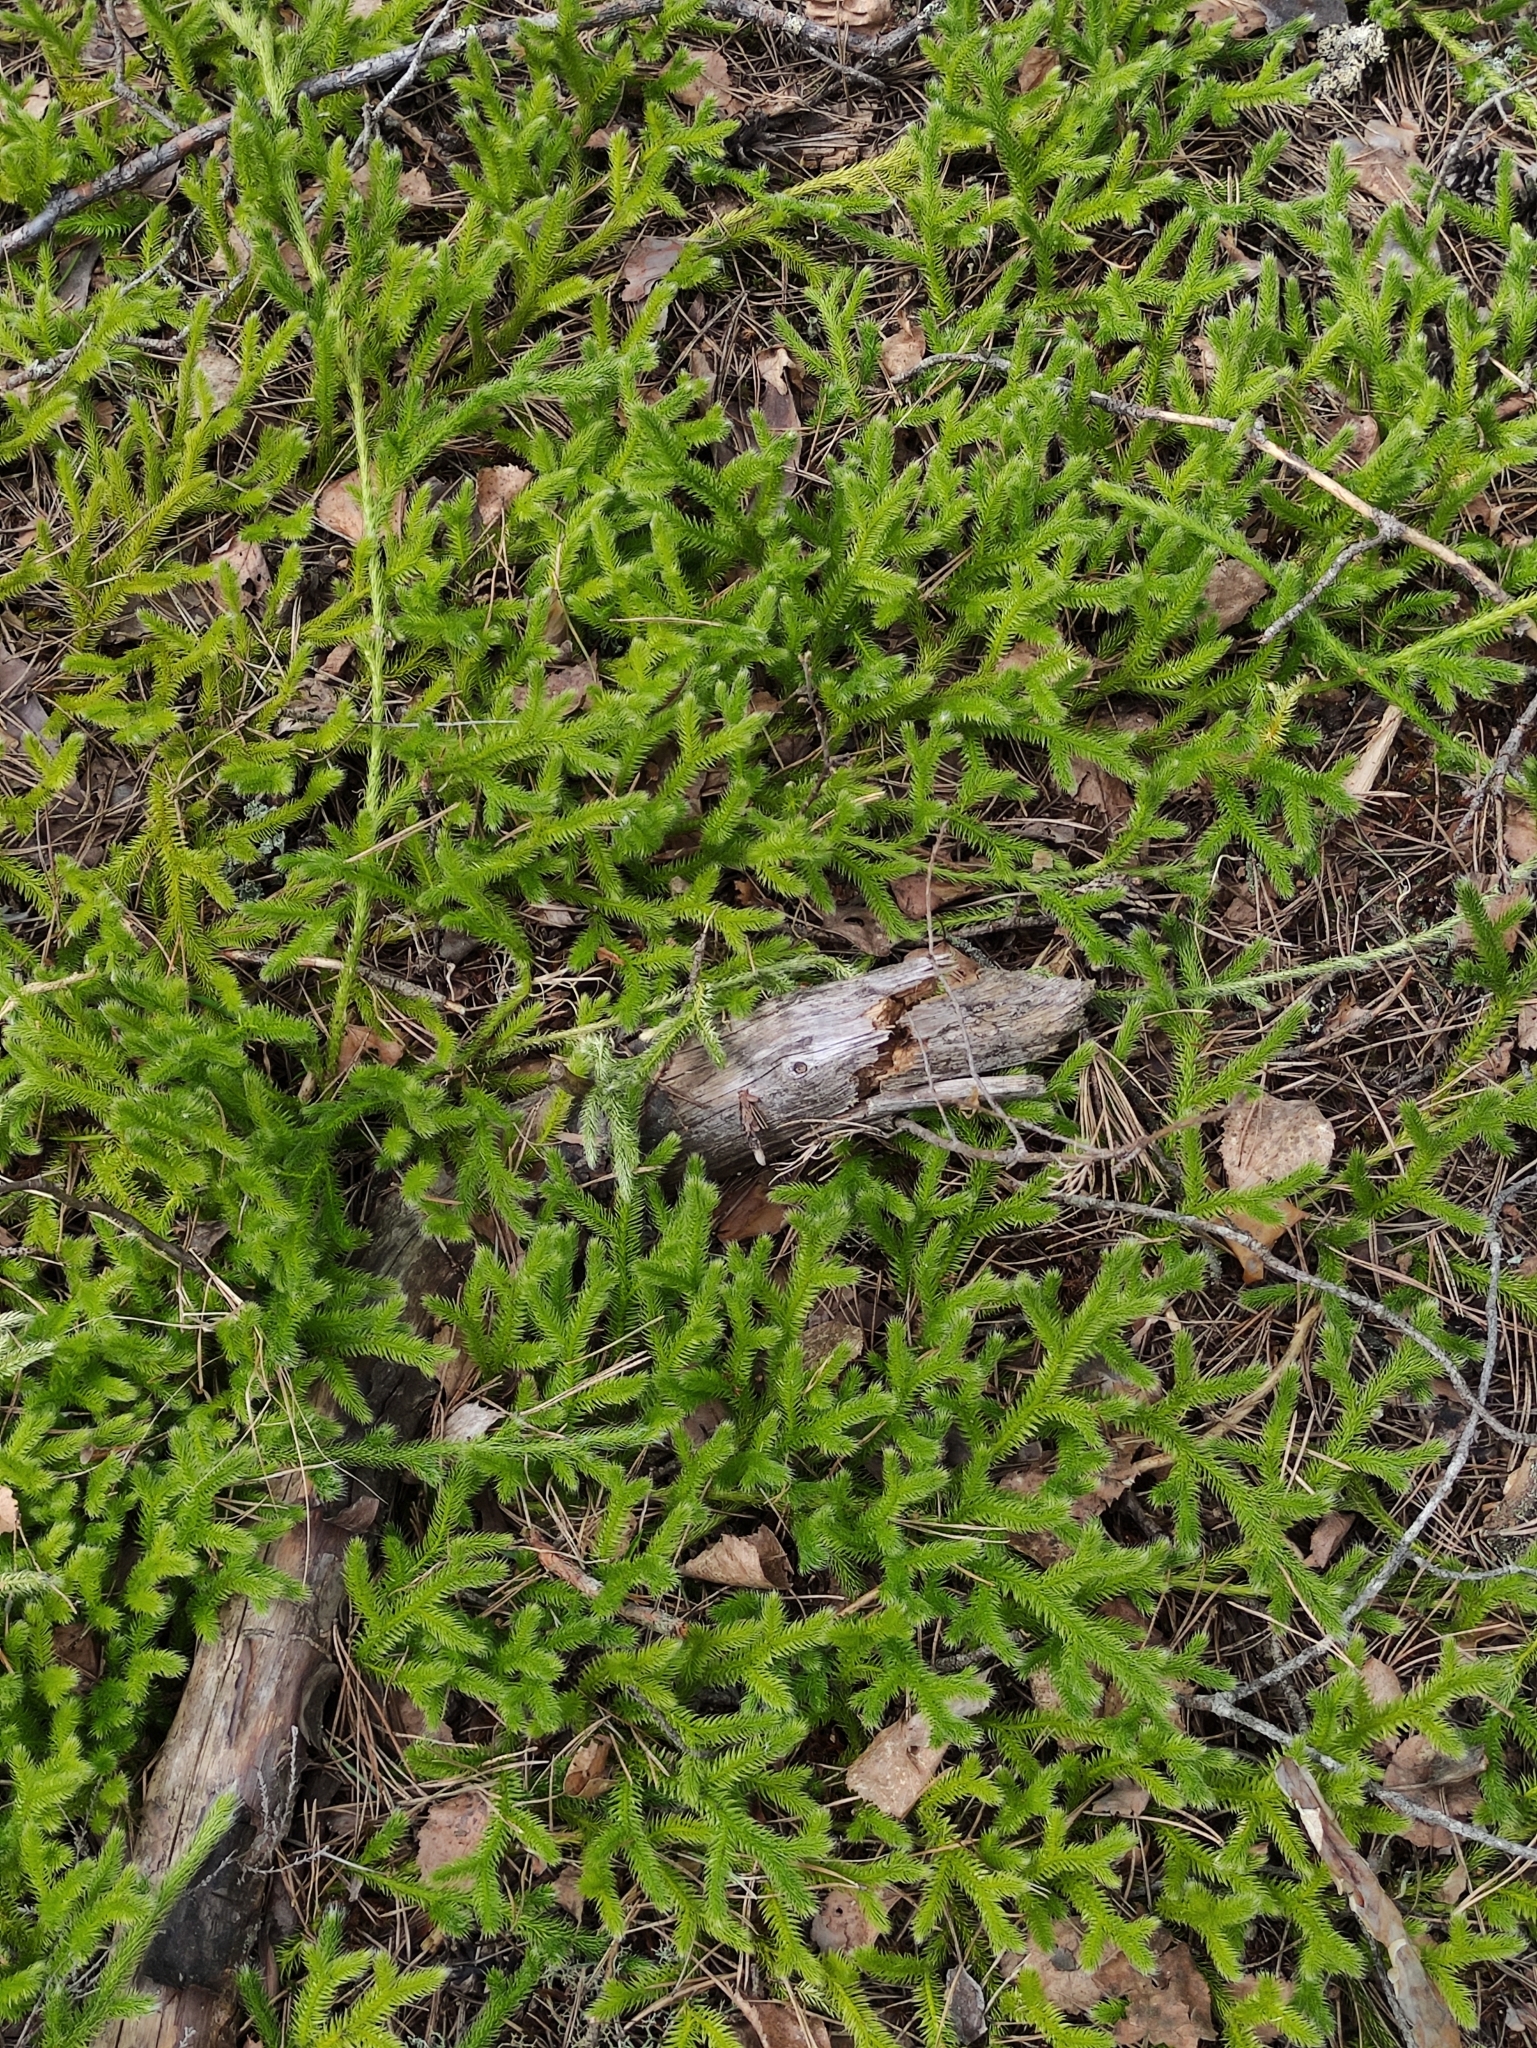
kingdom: Plantae
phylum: Tracheophyta
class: Lycopodiopsida
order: Lycopodiales
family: Lycopodiaceae
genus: Lycopodium
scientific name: Lycopodium clavatum
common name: Stag's-horn clubmoss
